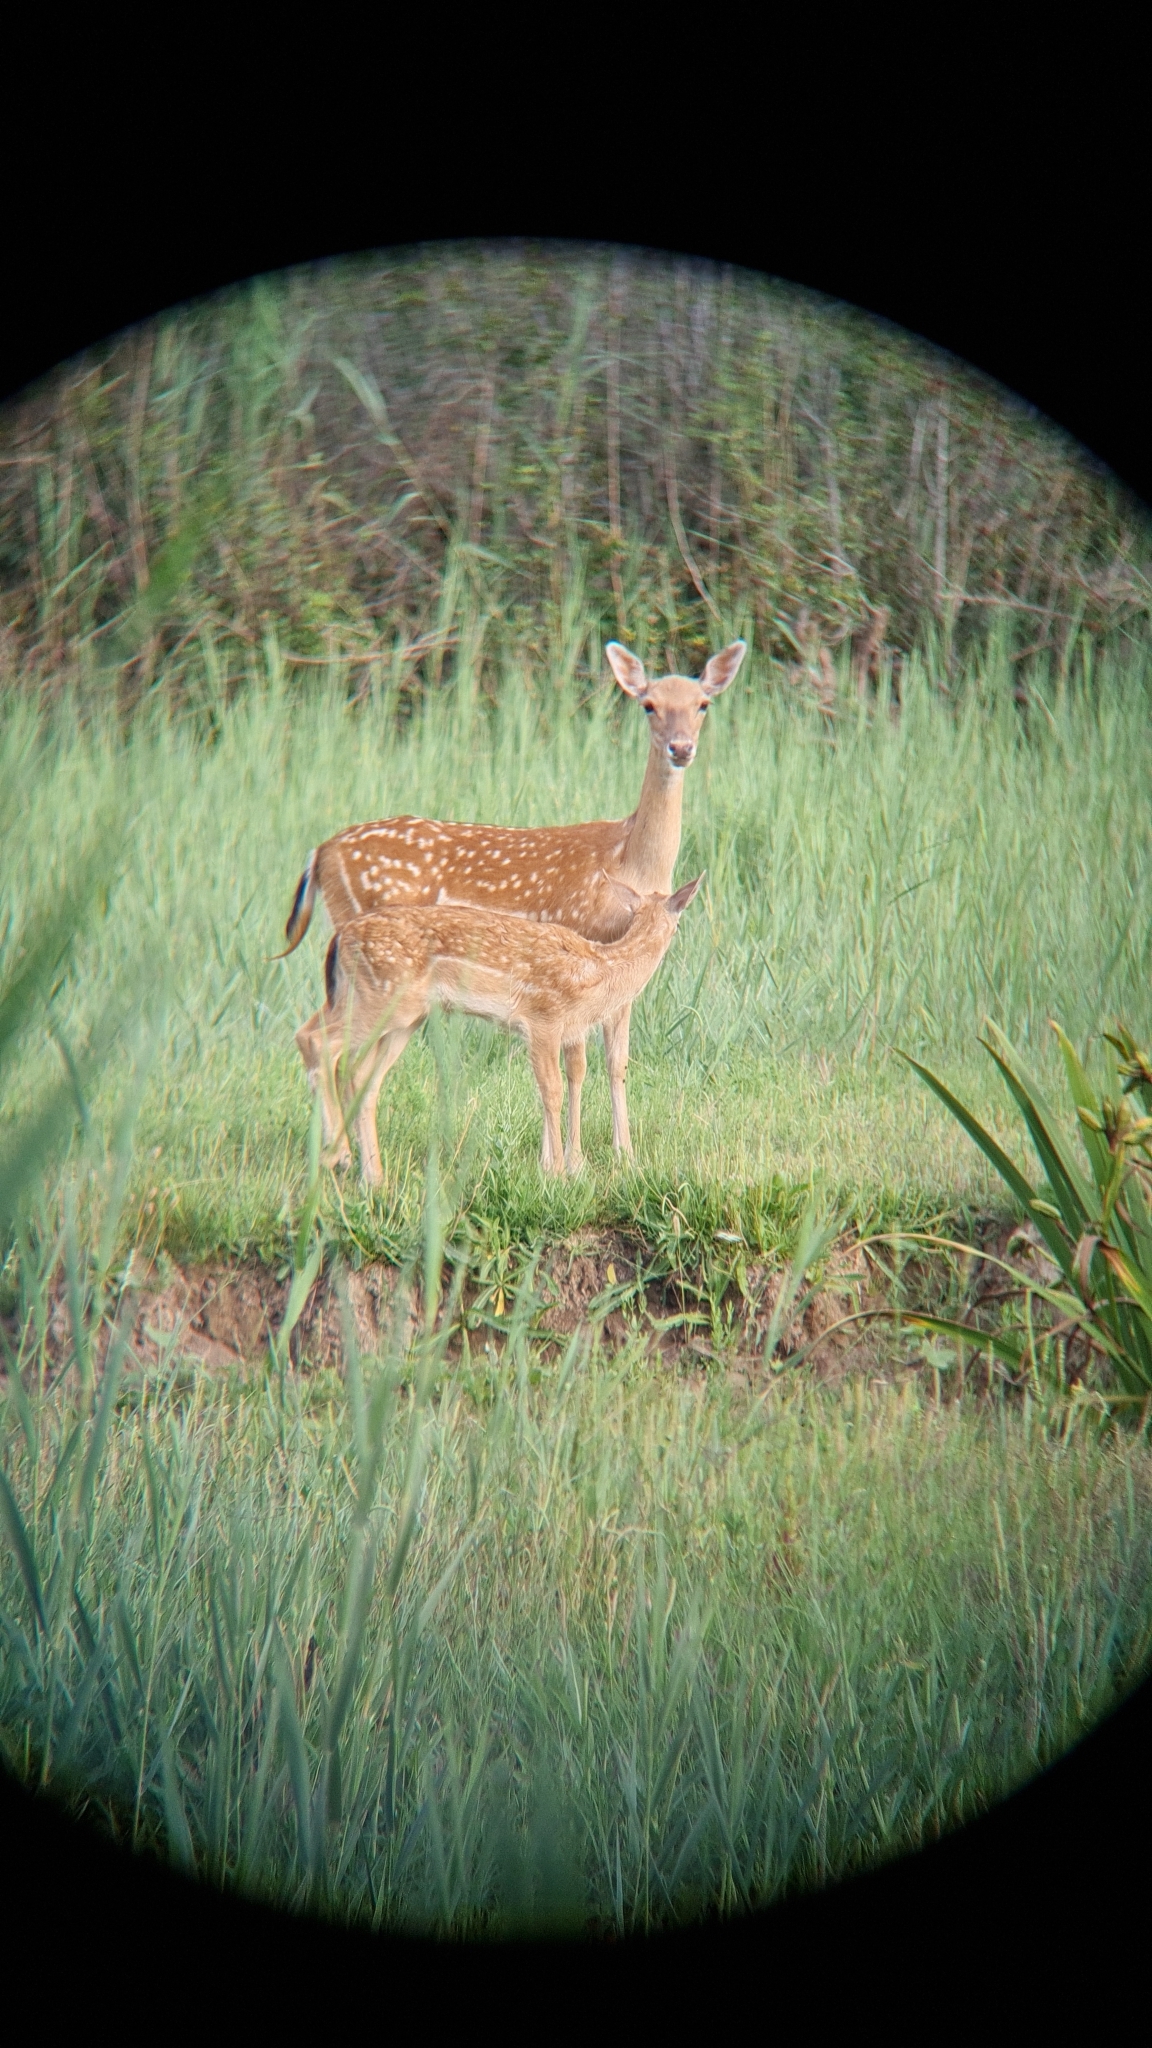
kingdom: Animalia
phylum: Chordata
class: Mammalia
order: Artiodactyla
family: Cervidae
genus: Dama
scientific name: Dama dama
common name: Fallow deer
